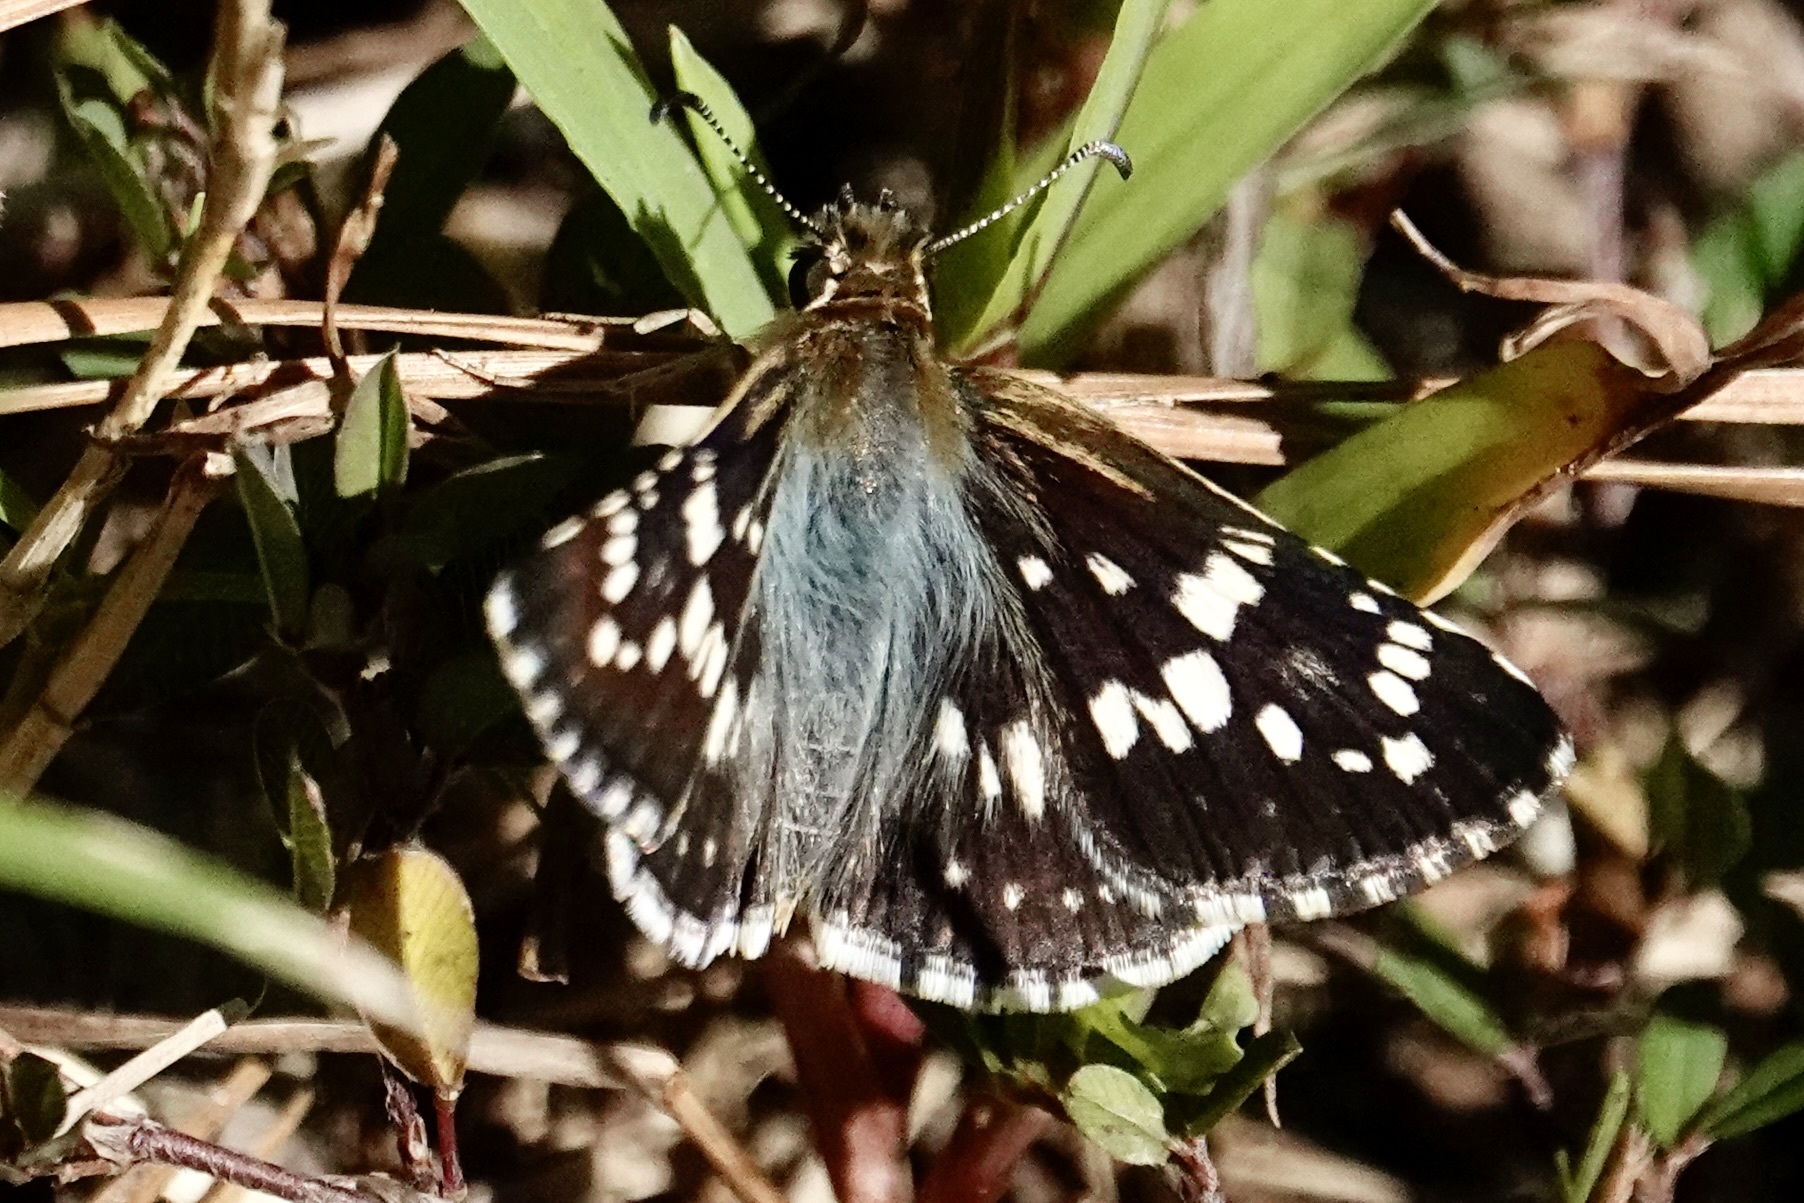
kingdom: Animalia
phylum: Arthropoda
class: Insecta
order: Lepidoptera
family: Hesperiidae
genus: Burnsius
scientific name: Burnsius communis
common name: Common checkered-skipper
